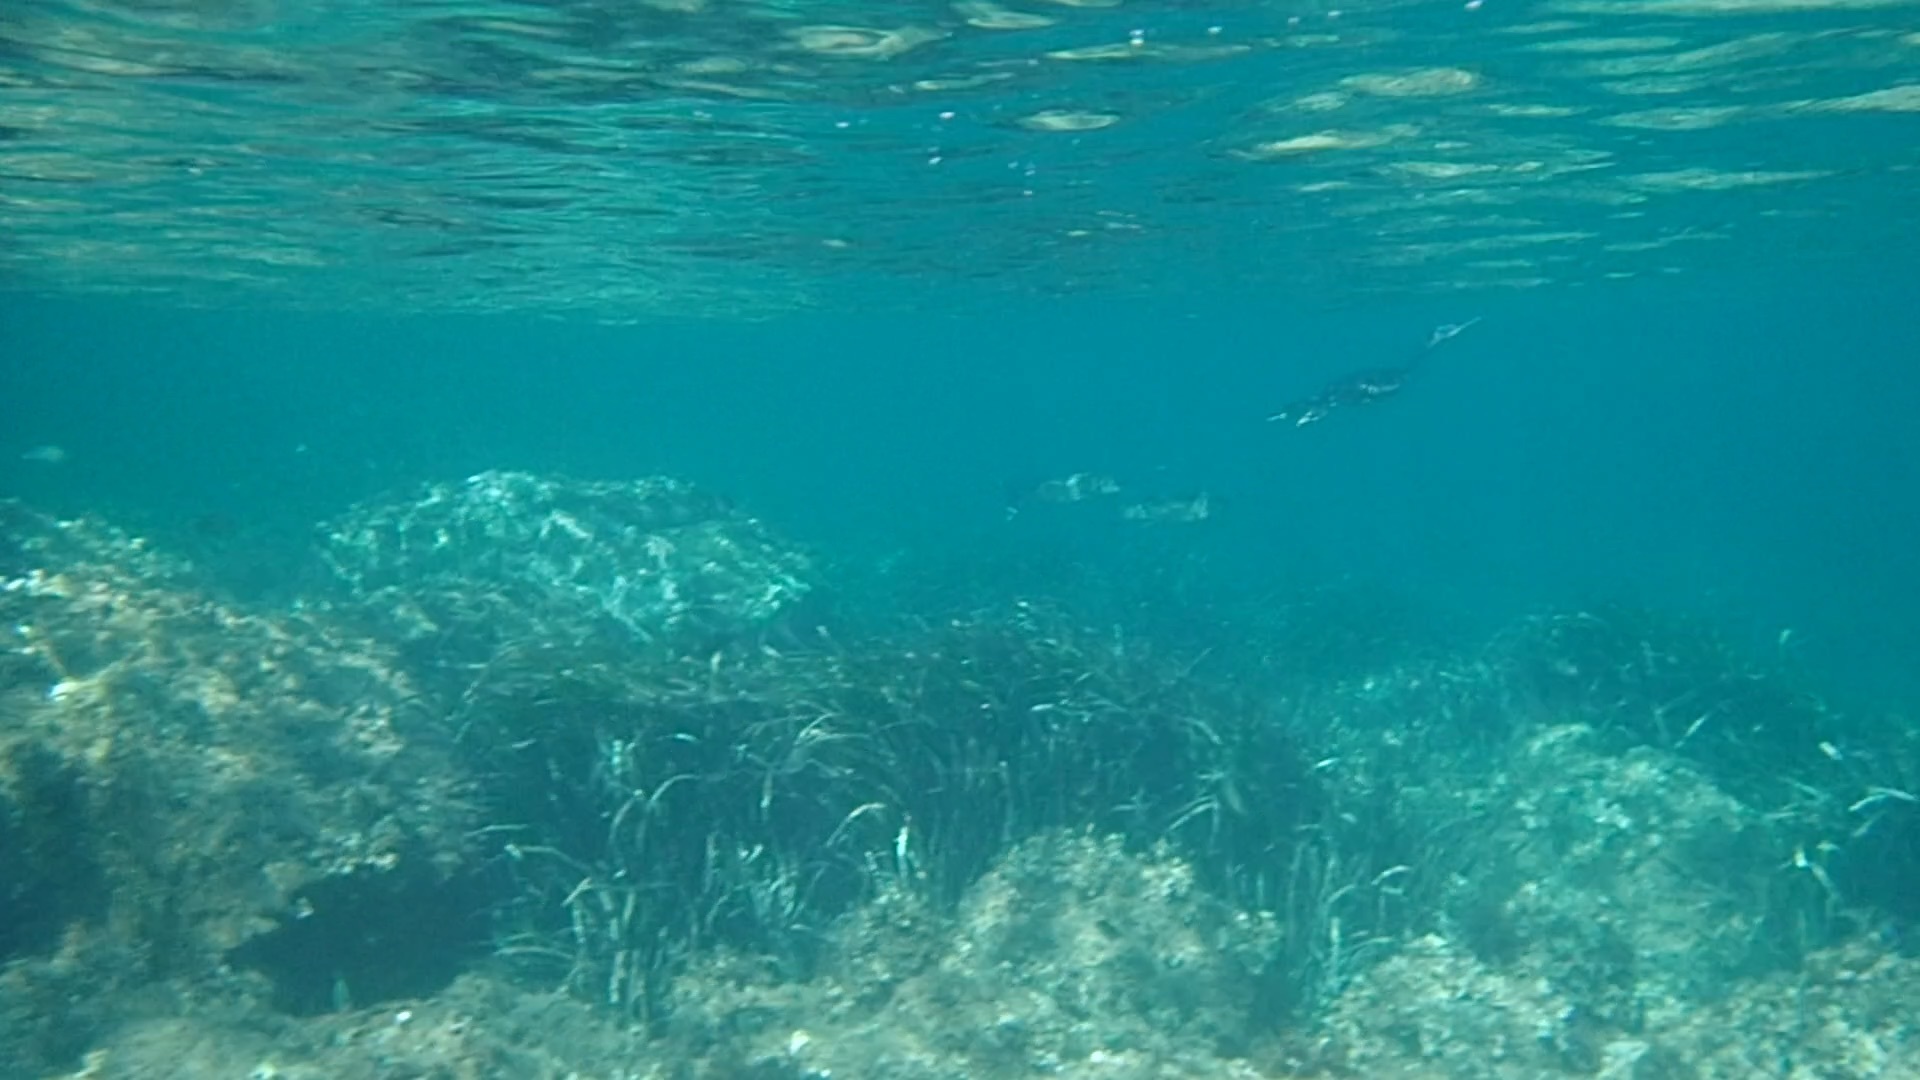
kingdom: Animalia
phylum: Chordata
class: Aves
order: Suliformes
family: Phalacrocoracidae
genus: Phalacrocorax
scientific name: Phalacrocorax aristotelis
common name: European shag
